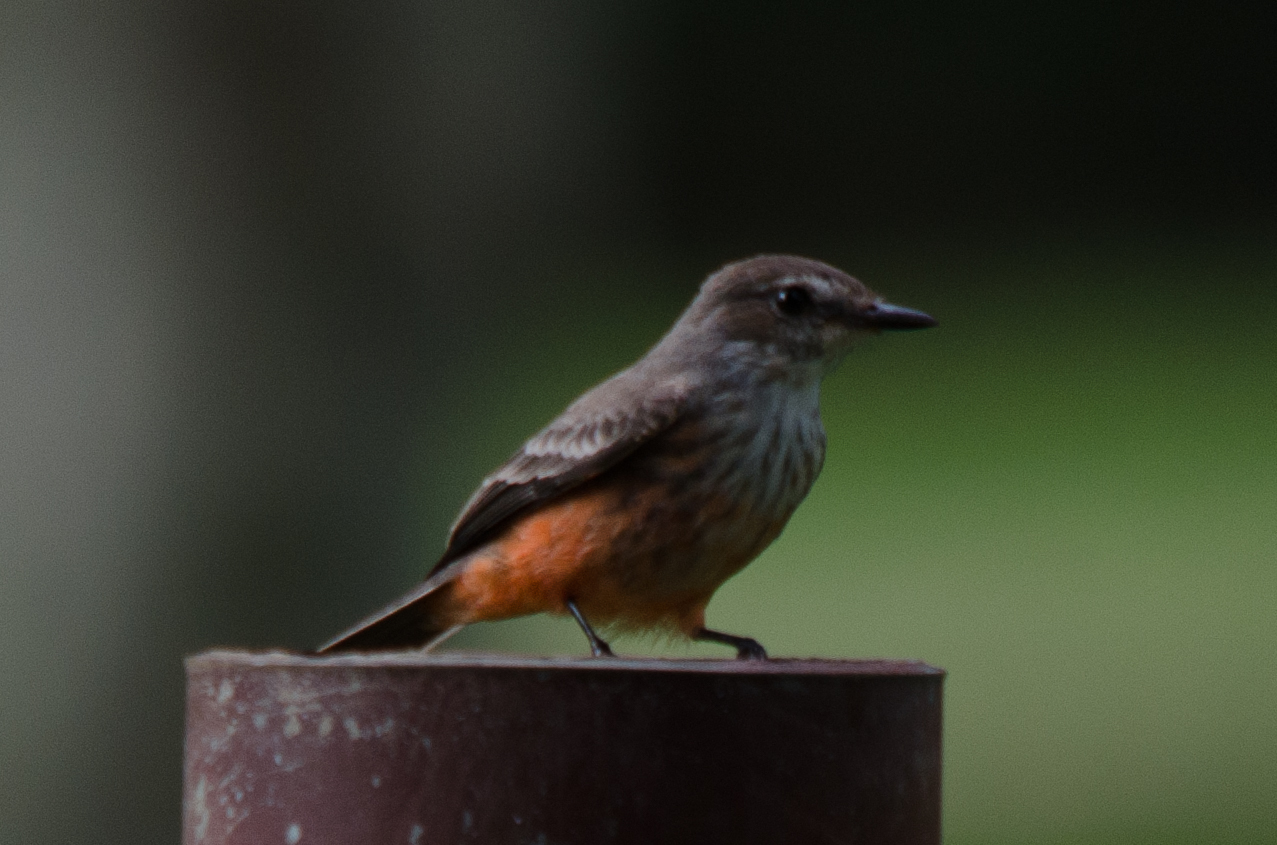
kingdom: Animalia
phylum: Chordata
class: Aves
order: Passeriformes
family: Tyrannidae
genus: Pyrocephalus
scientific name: Pyrocephalus rubinus
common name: Vermilion flycatcher
